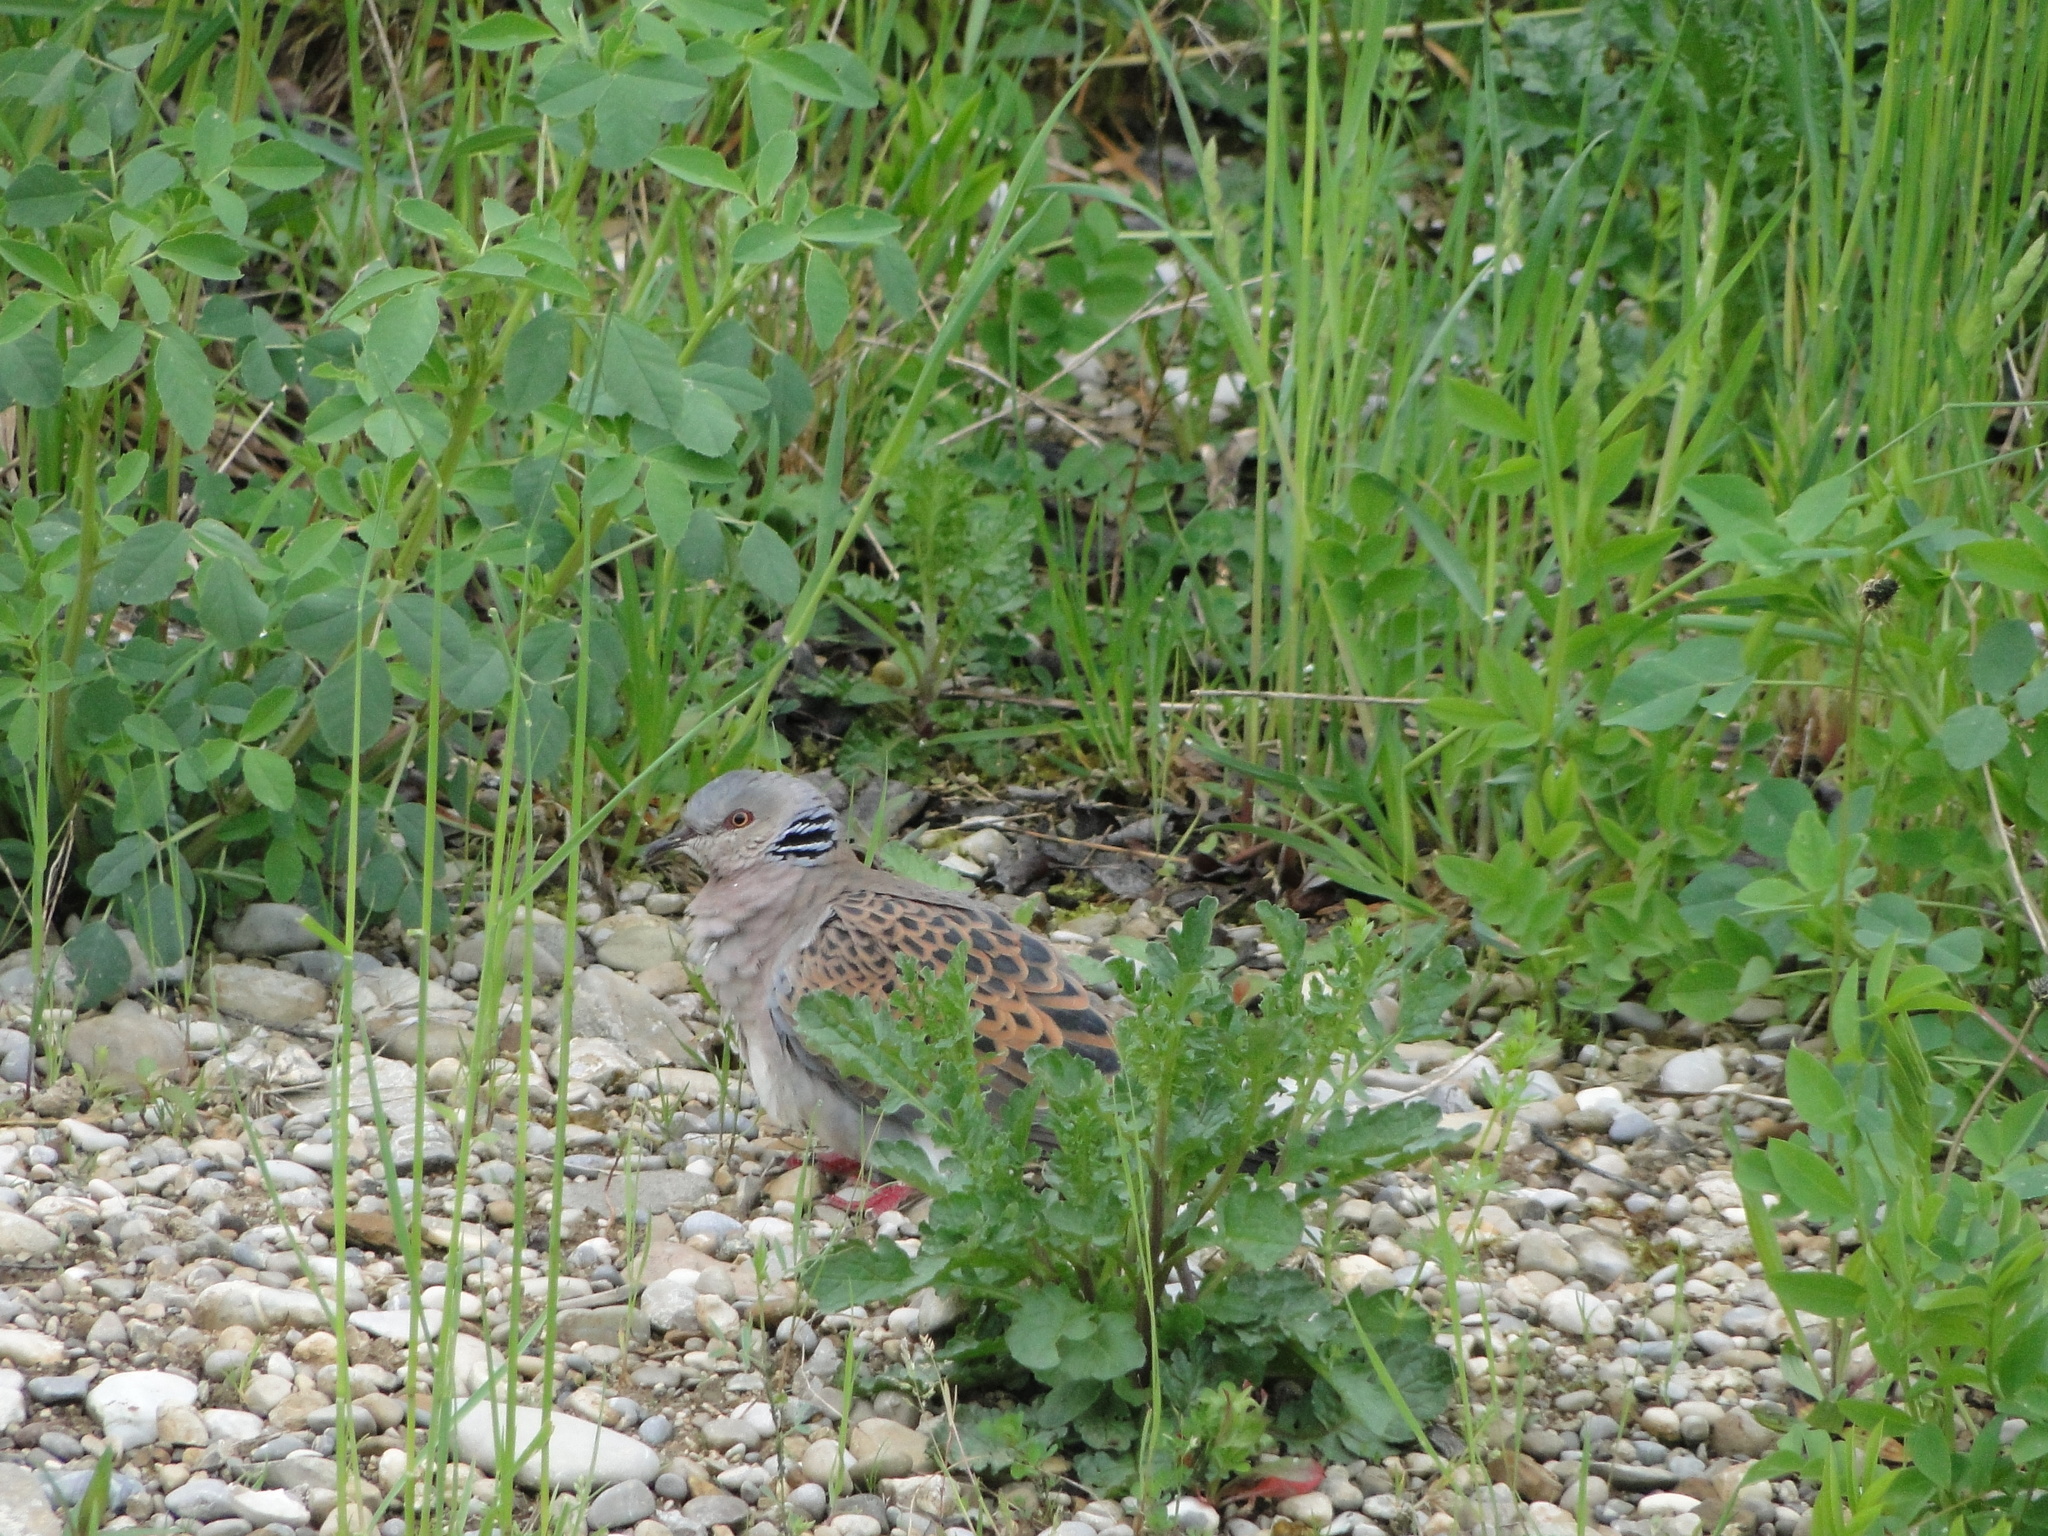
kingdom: Animalia
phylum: Chordata
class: Aves
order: Columbiformes
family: Columbidae
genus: Streptopelia
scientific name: Streptopelia turtur
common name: European turtle dove
